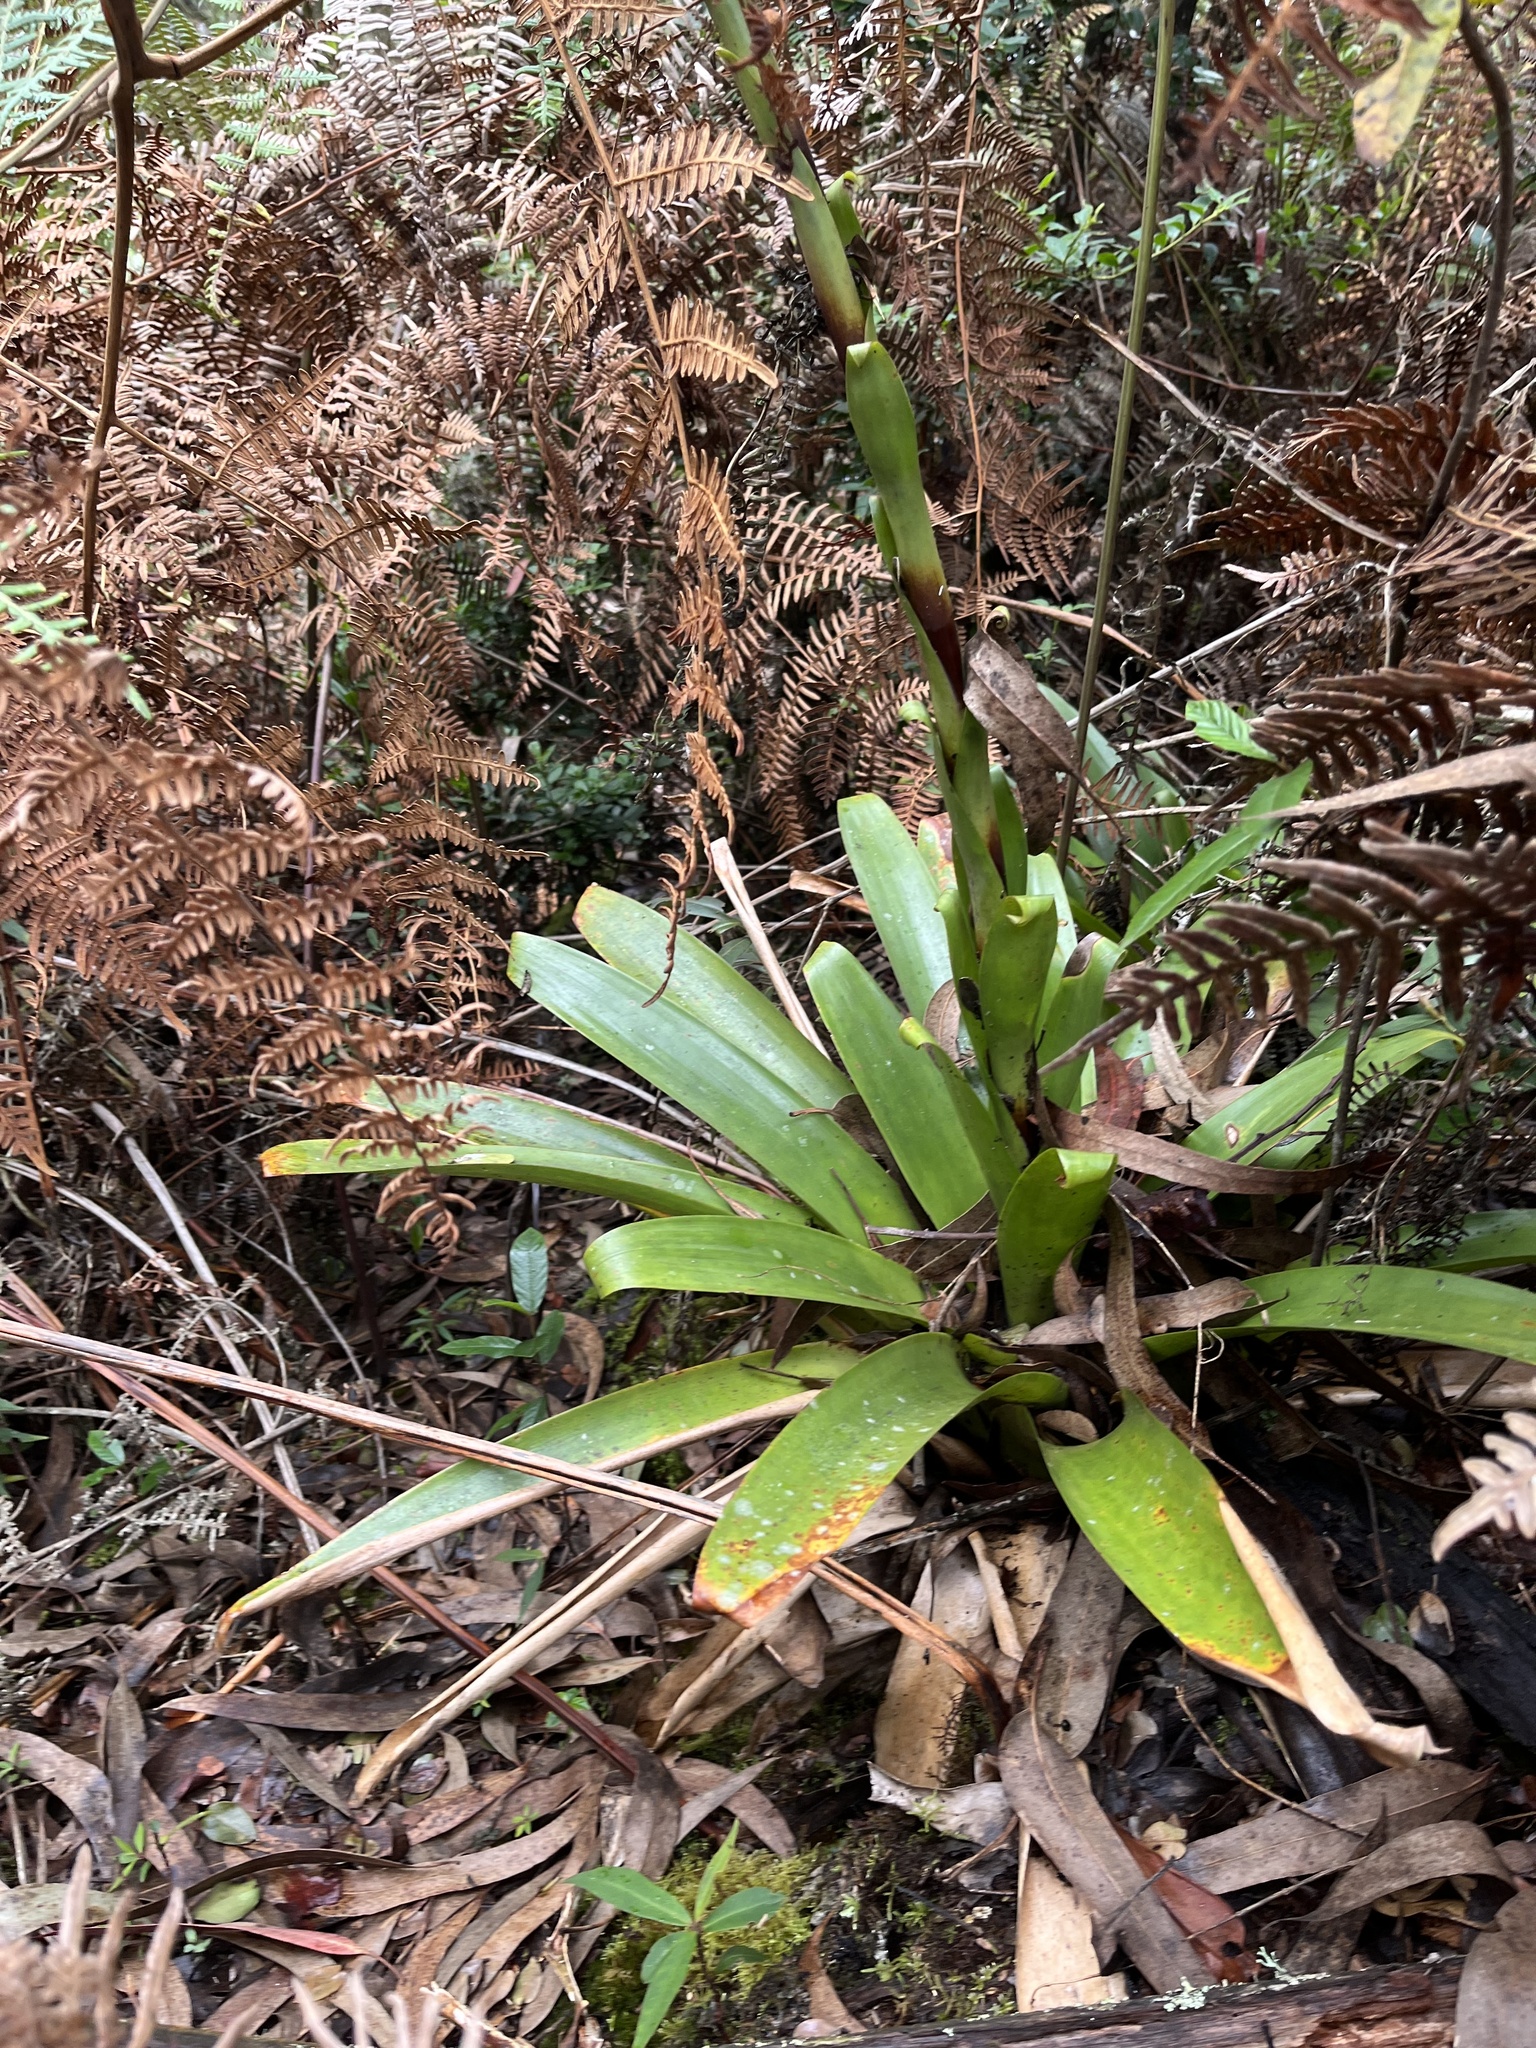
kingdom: Plantae
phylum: Tracheophyta
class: Liliopsida
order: Poales
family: Bromeliaceae
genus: Tillandsia
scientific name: Tillandsia denudata
